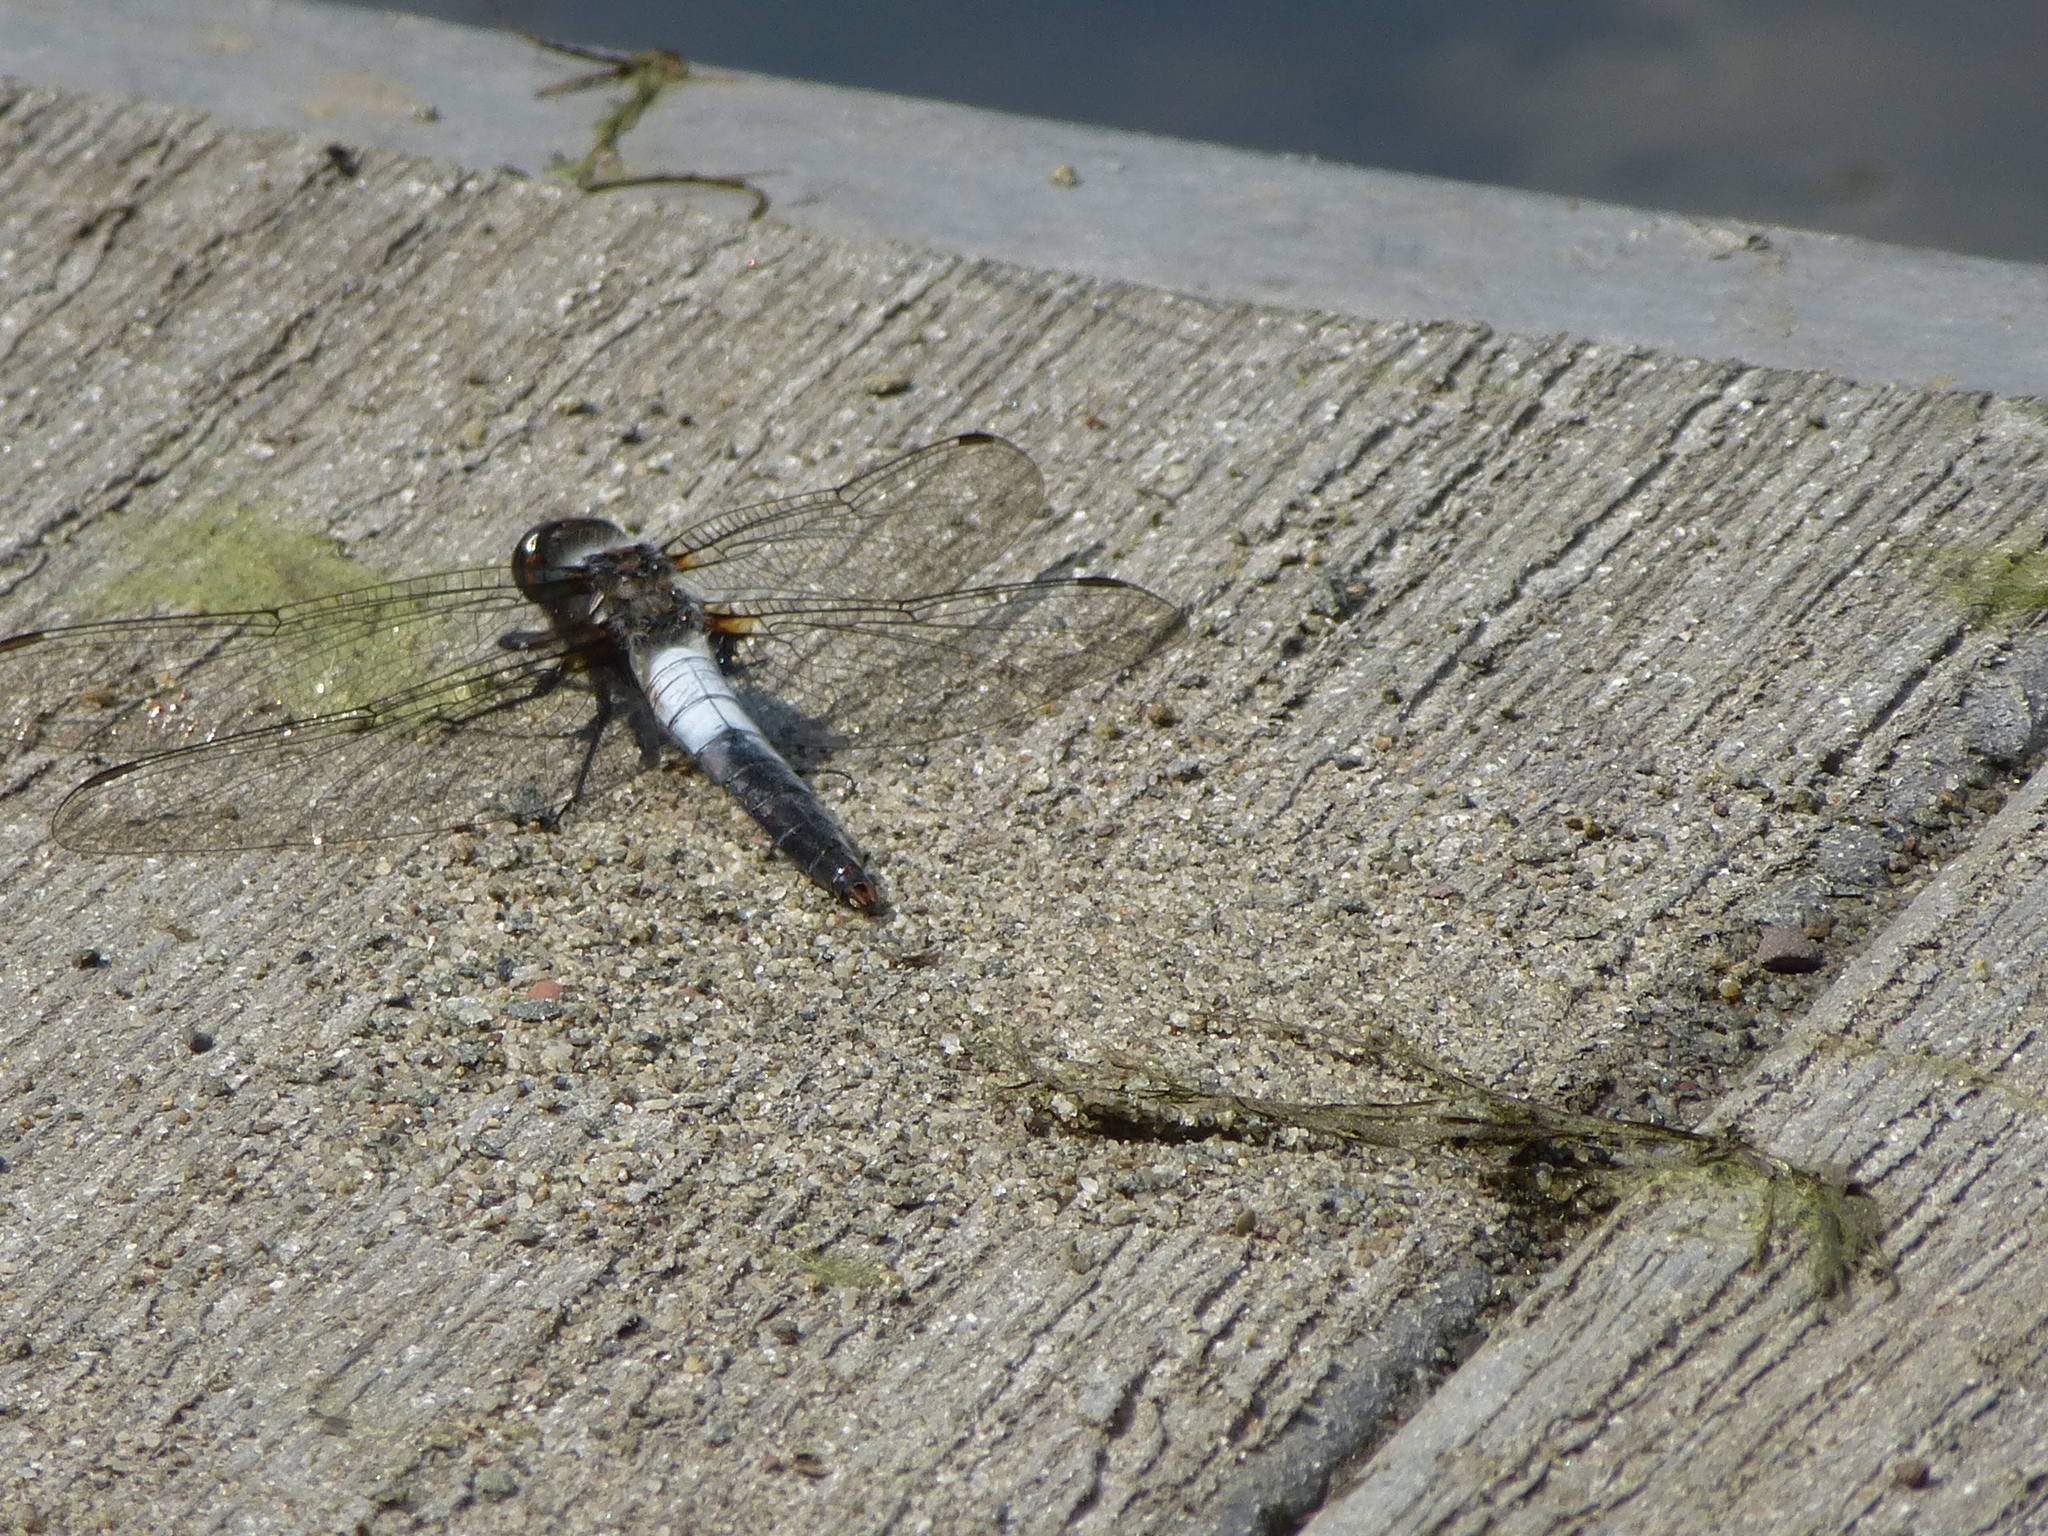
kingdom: Animalia
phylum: Arthropoda
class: Insecta
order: Odonata
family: Libellulidae
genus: Ladona
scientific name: Ladona julia
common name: Chalk-fronted corporal
